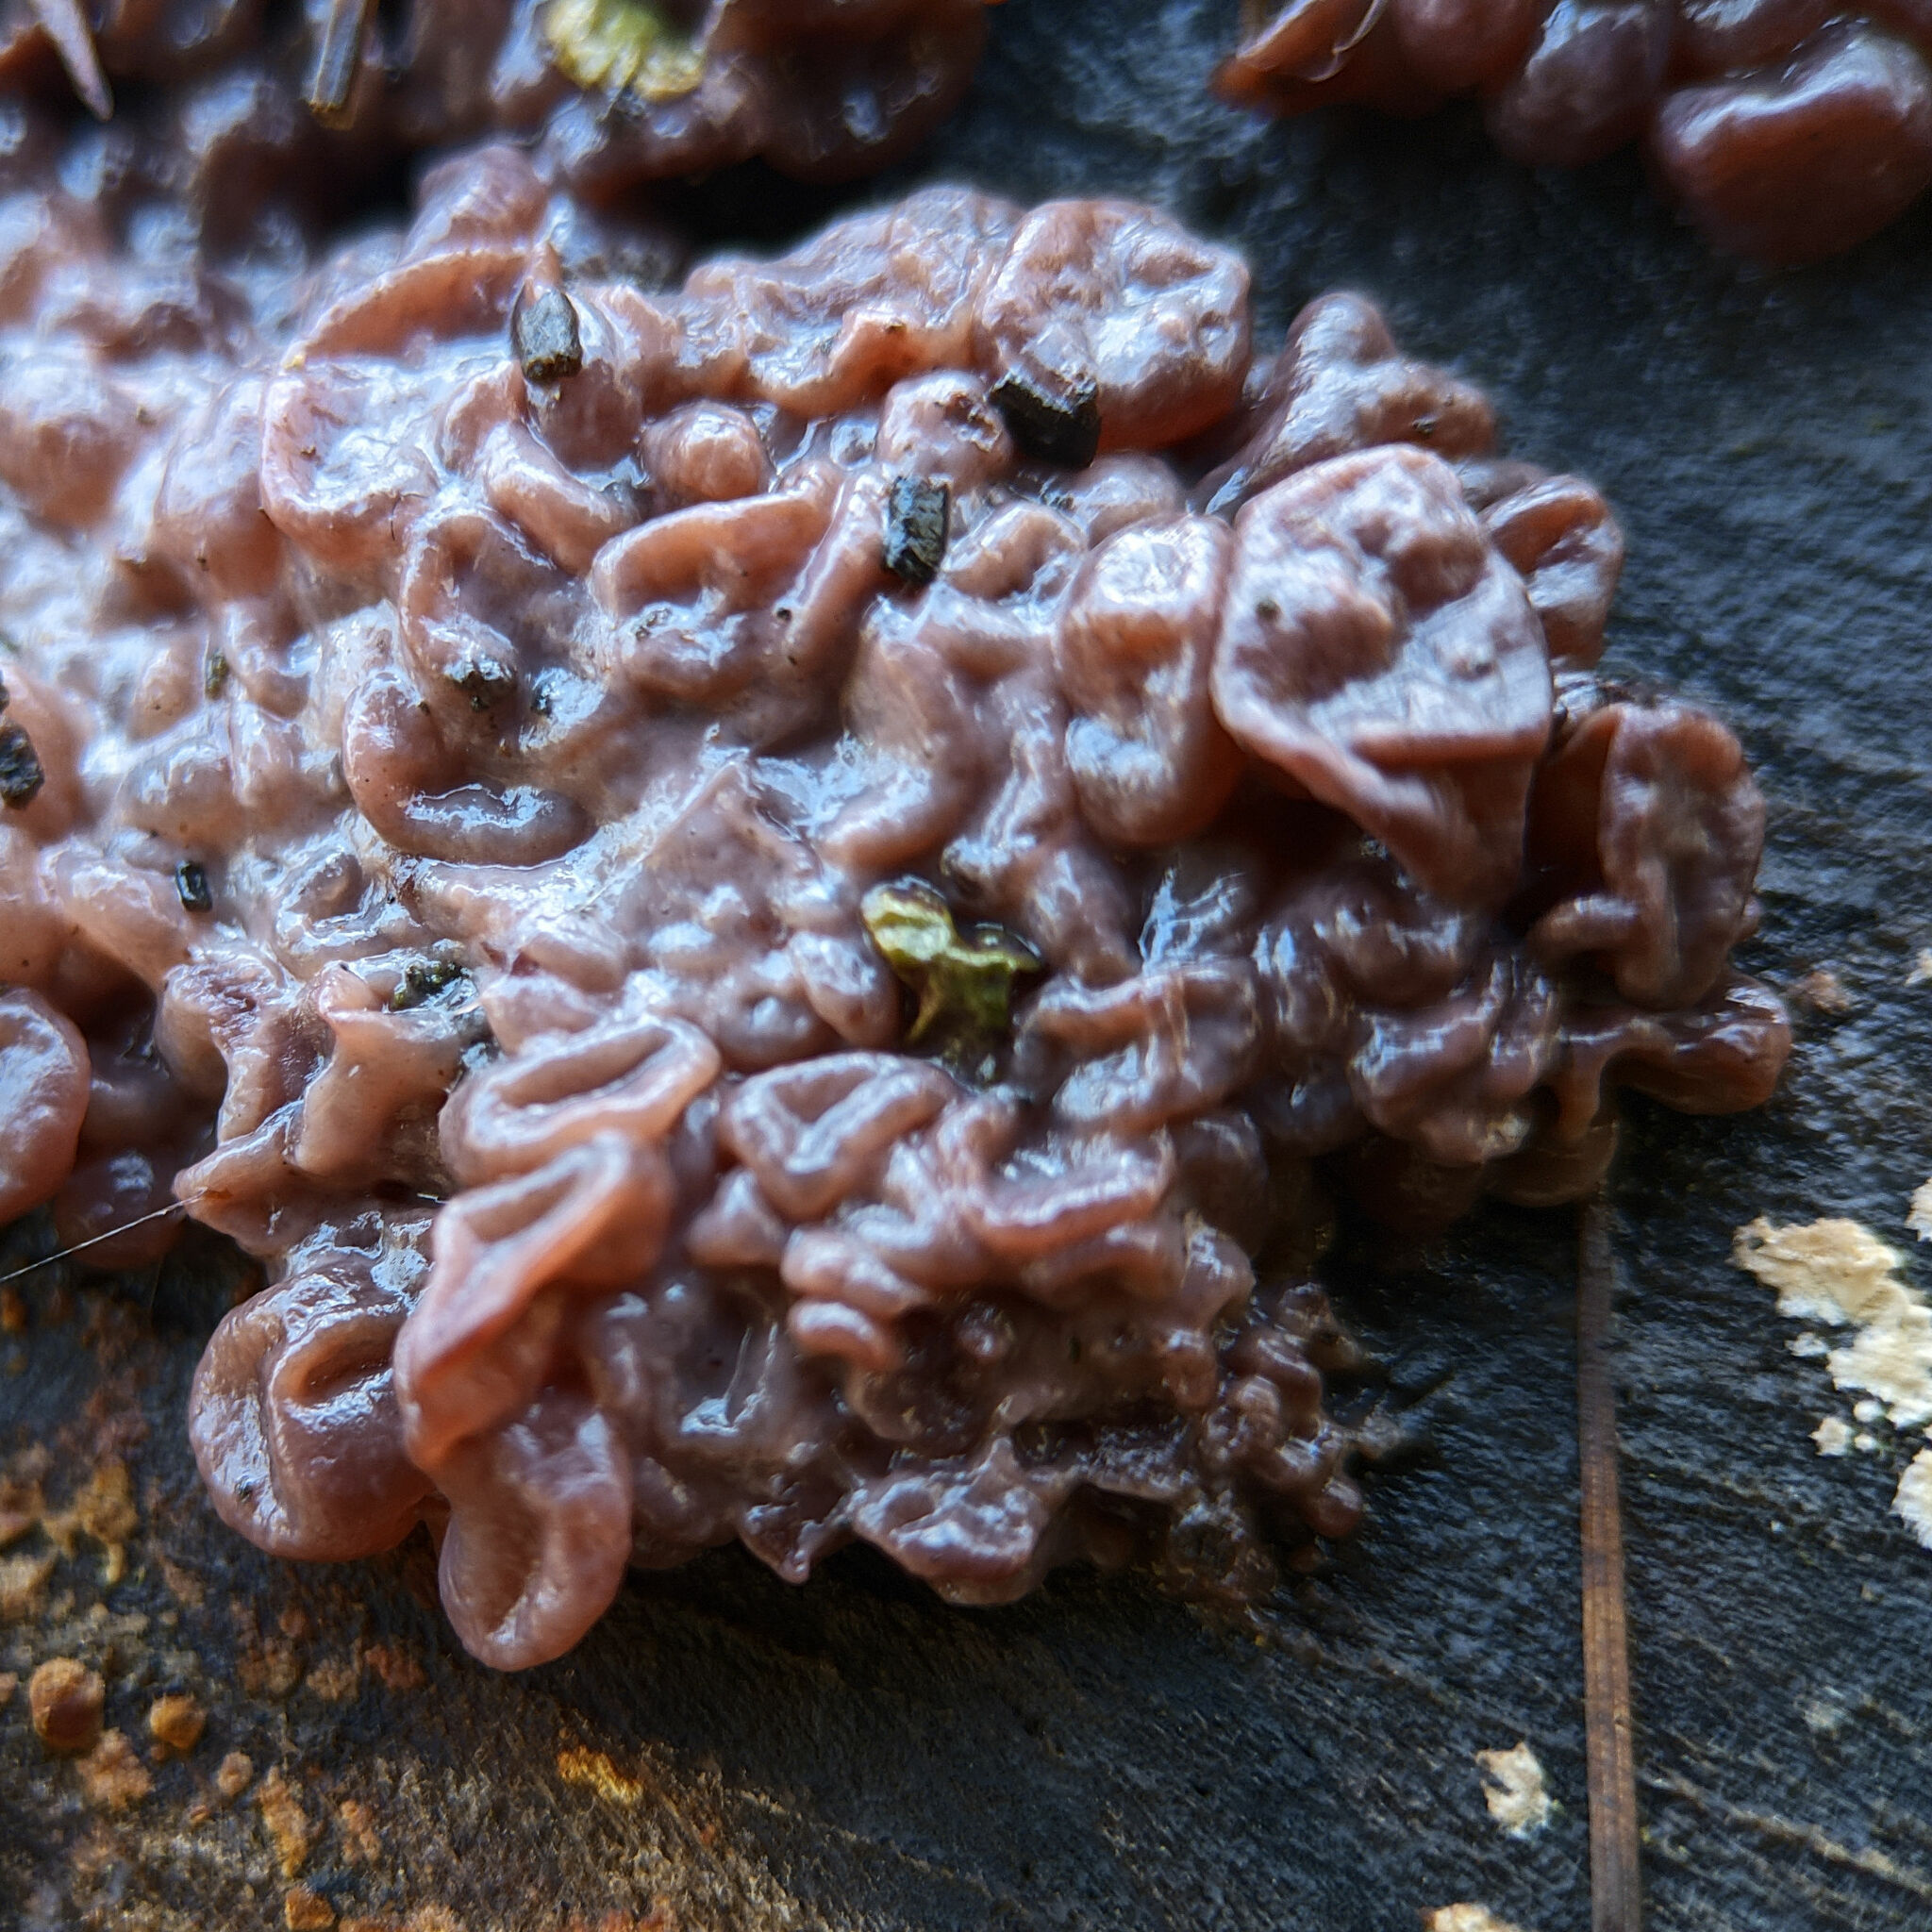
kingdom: Fungi
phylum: Ascomycota
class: Leotiomycetes
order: Helotiales
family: Gelatinodiscaceae
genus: Ascocoryne
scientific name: Ascocoryne sarcoides
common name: Purple jellydisc
